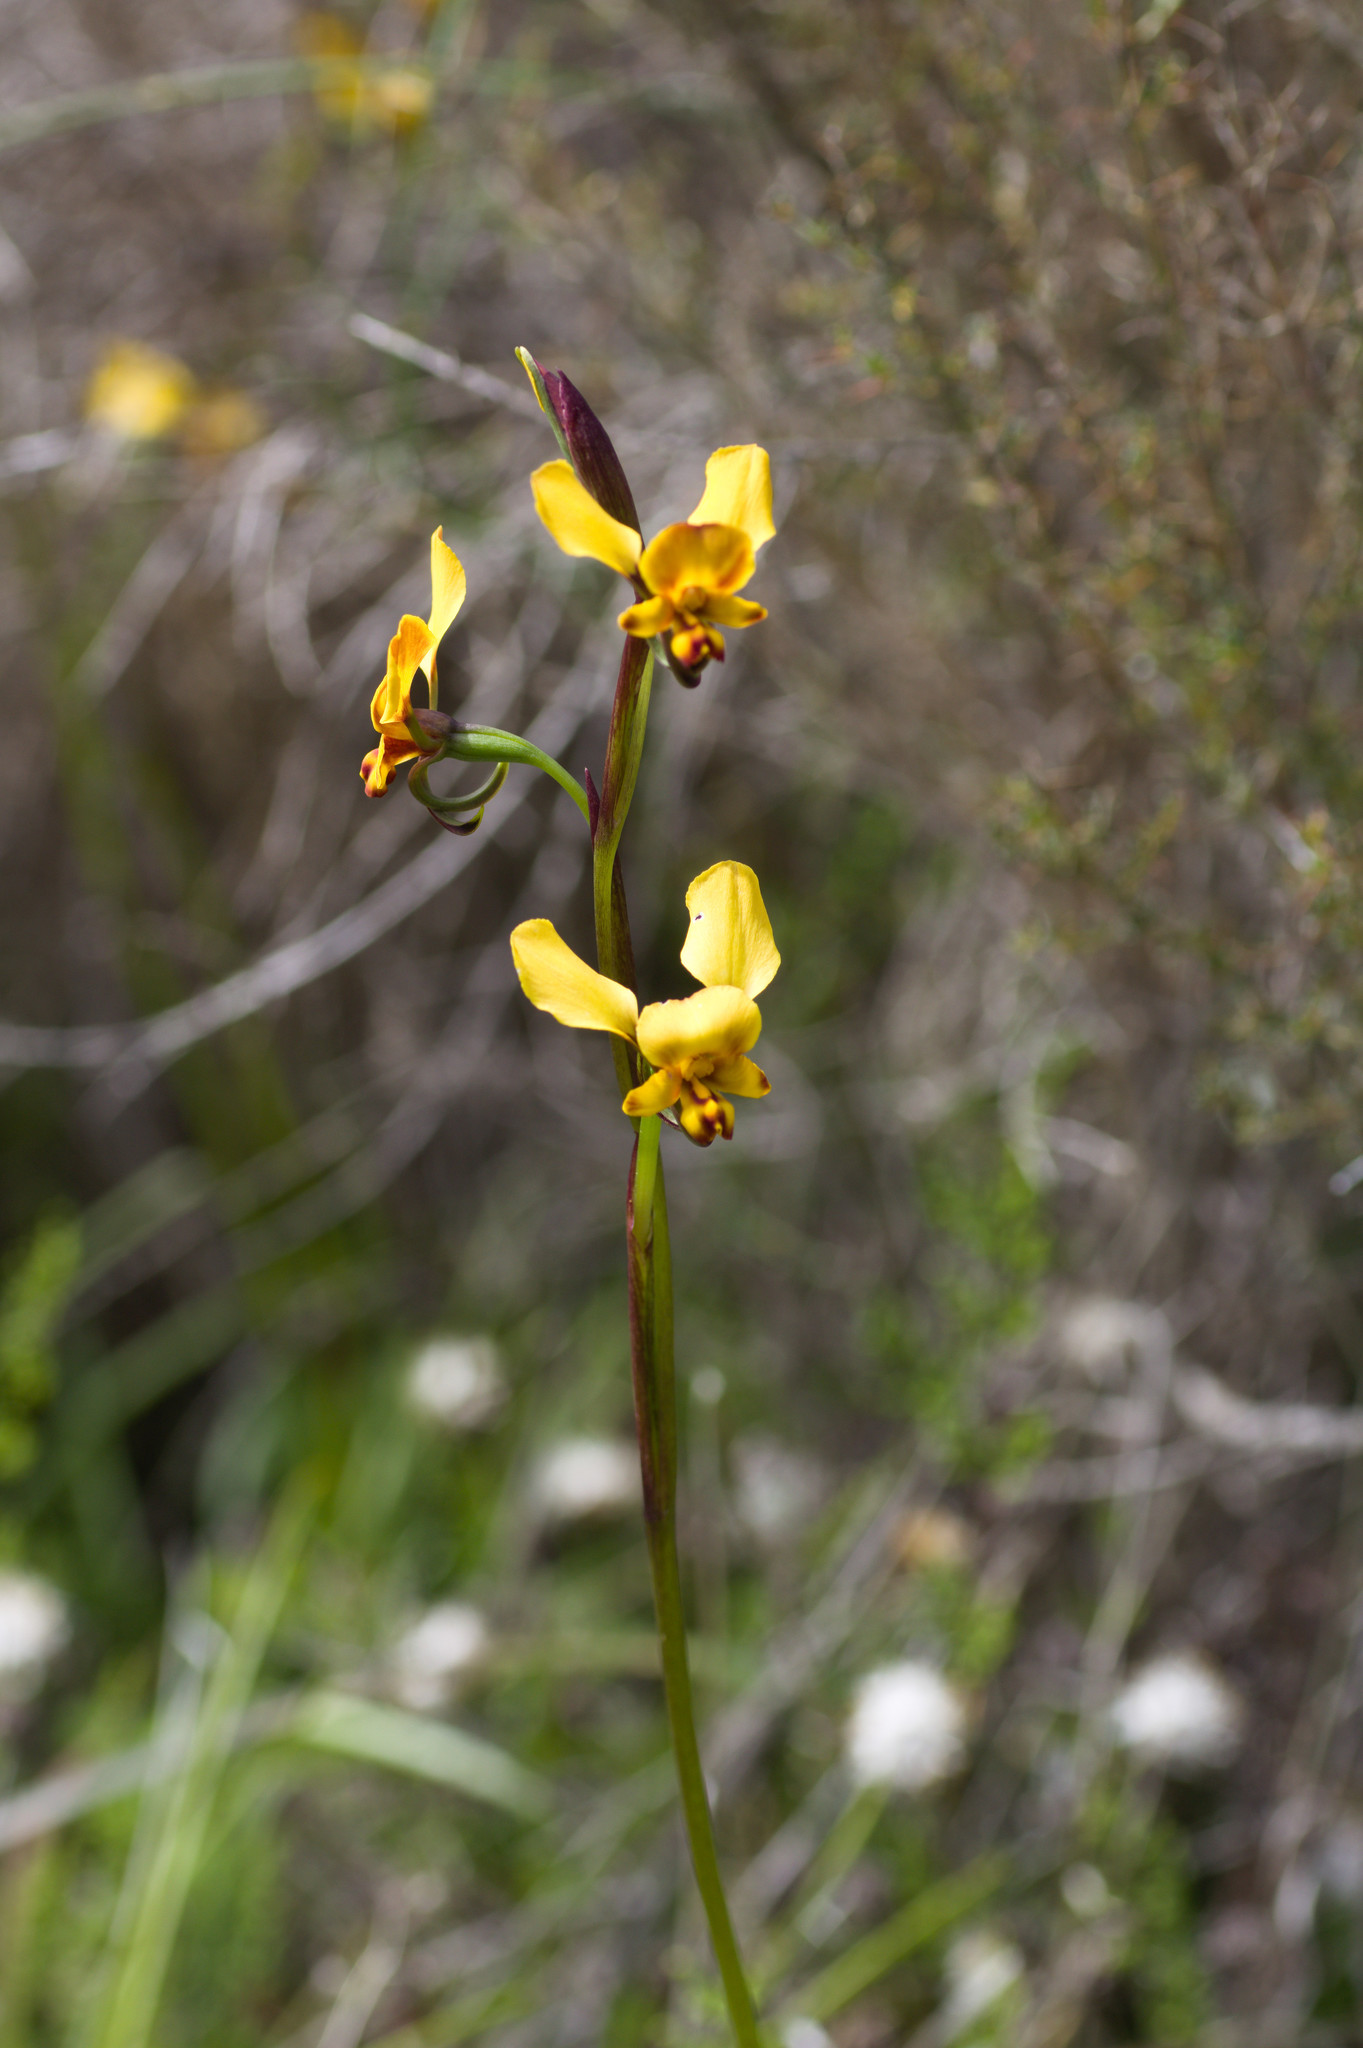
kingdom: Plantae
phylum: Tracheophyta
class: Liliopsida
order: Asparagales
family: Orchidaceae
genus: Diuris
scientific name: Diuris hazeliae
